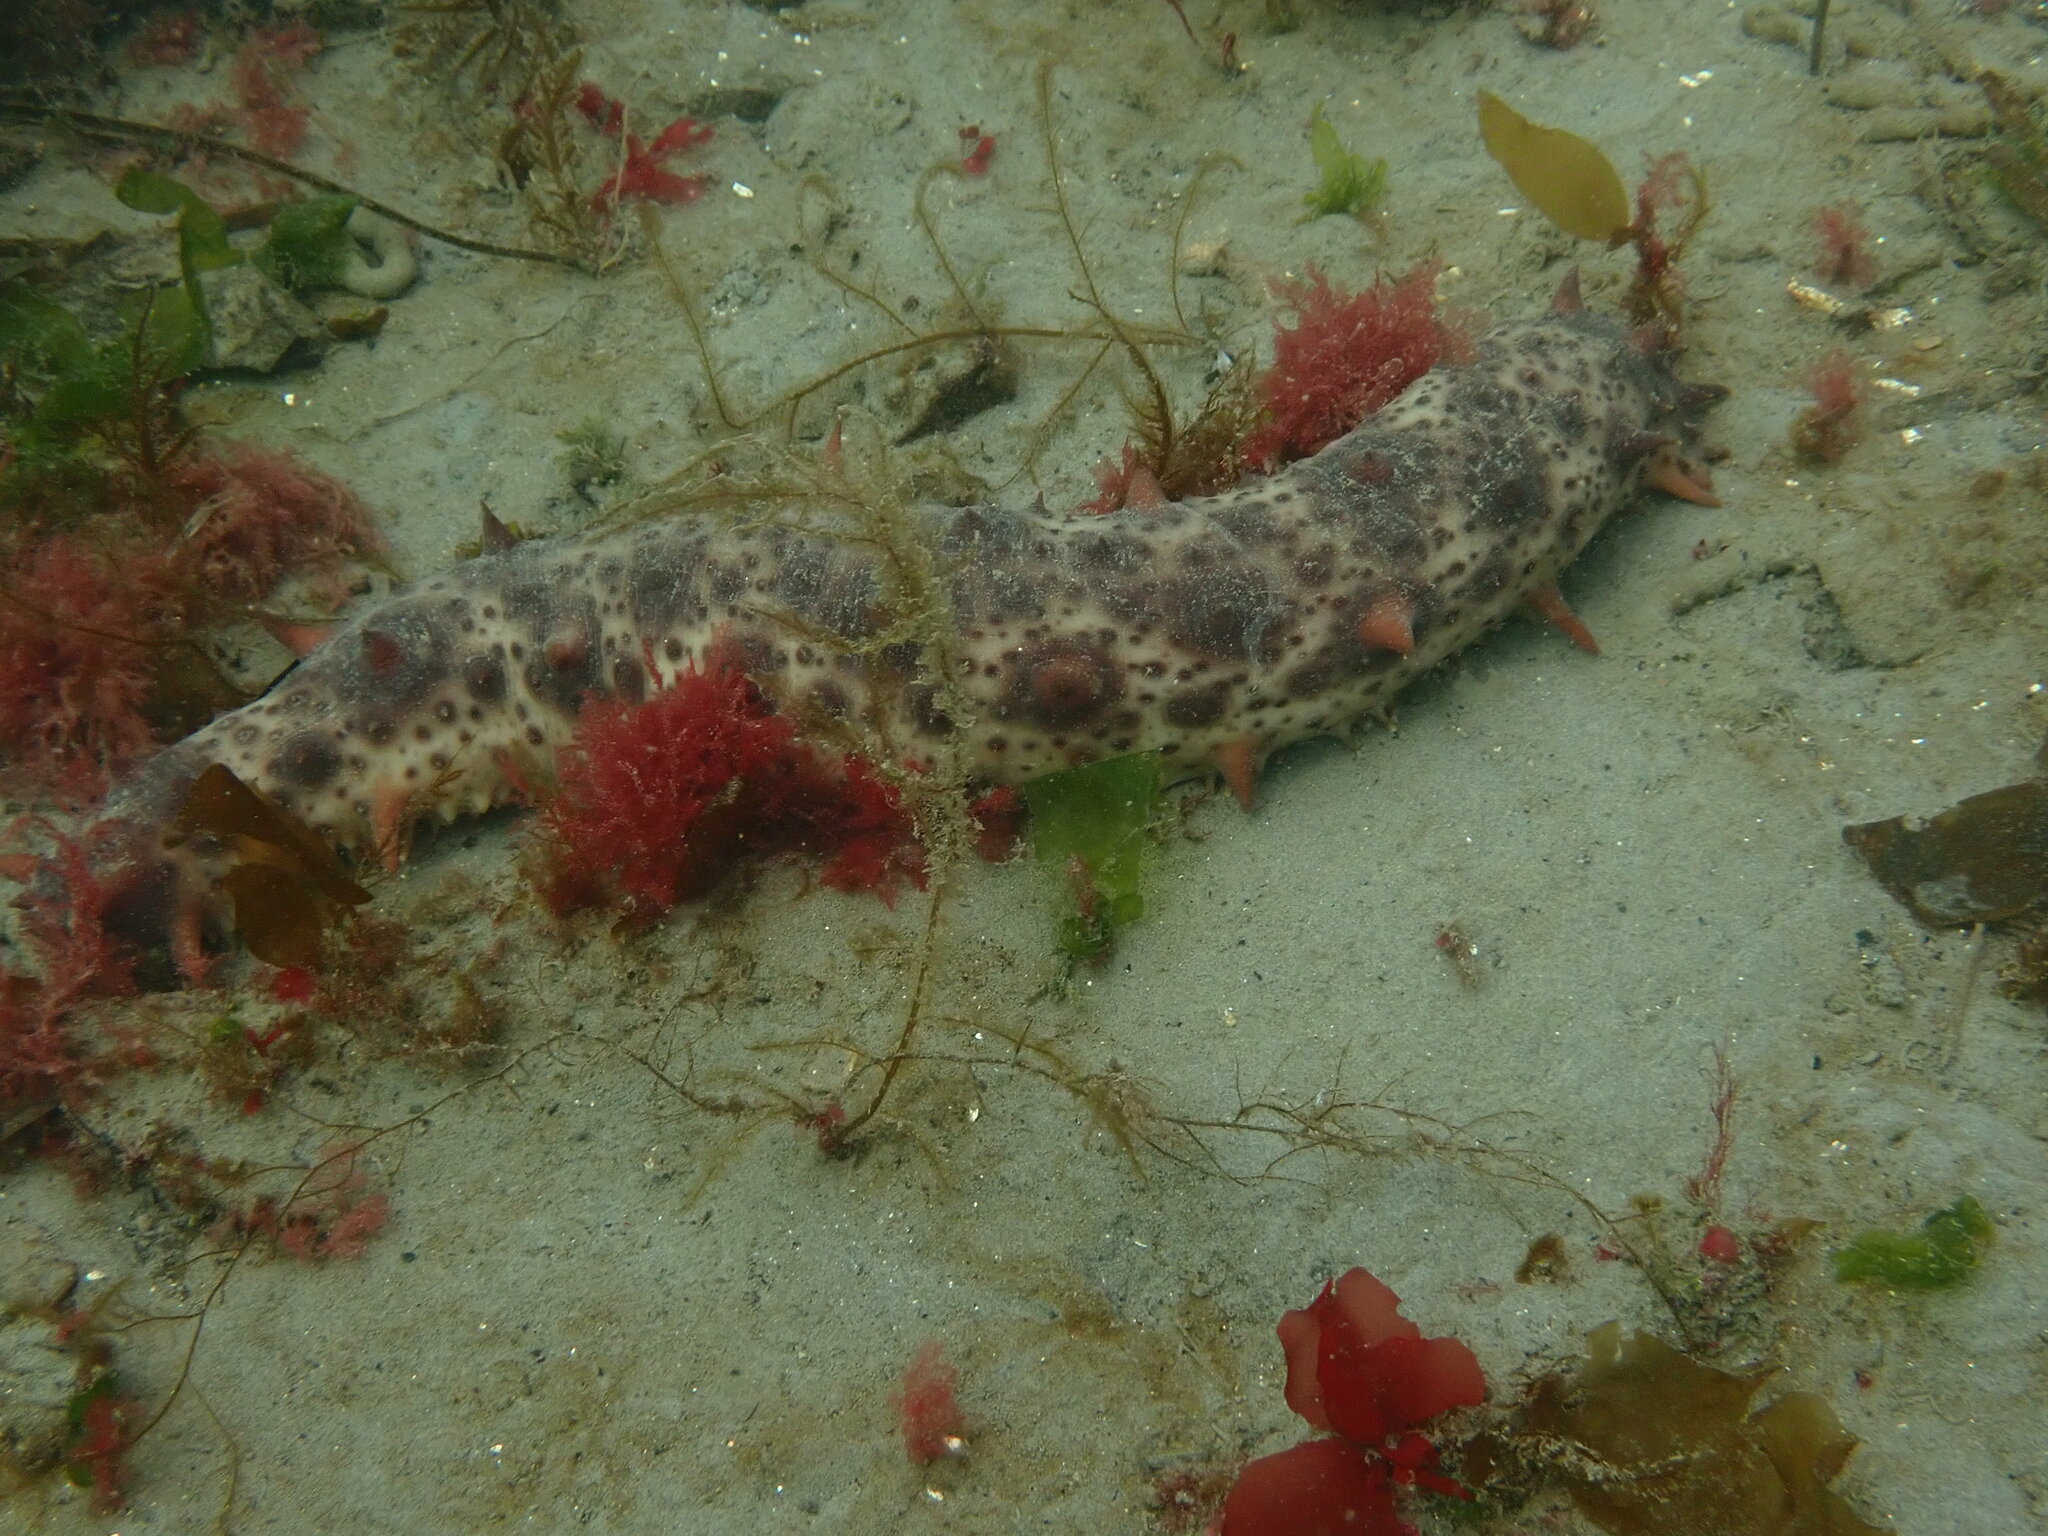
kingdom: Animalia
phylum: Echinodermata
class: Holothuroidea
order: Synallactida
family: Stichopodidae
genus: Apostichopus
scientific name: Apostichopus californicus
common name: California sea cucumber
